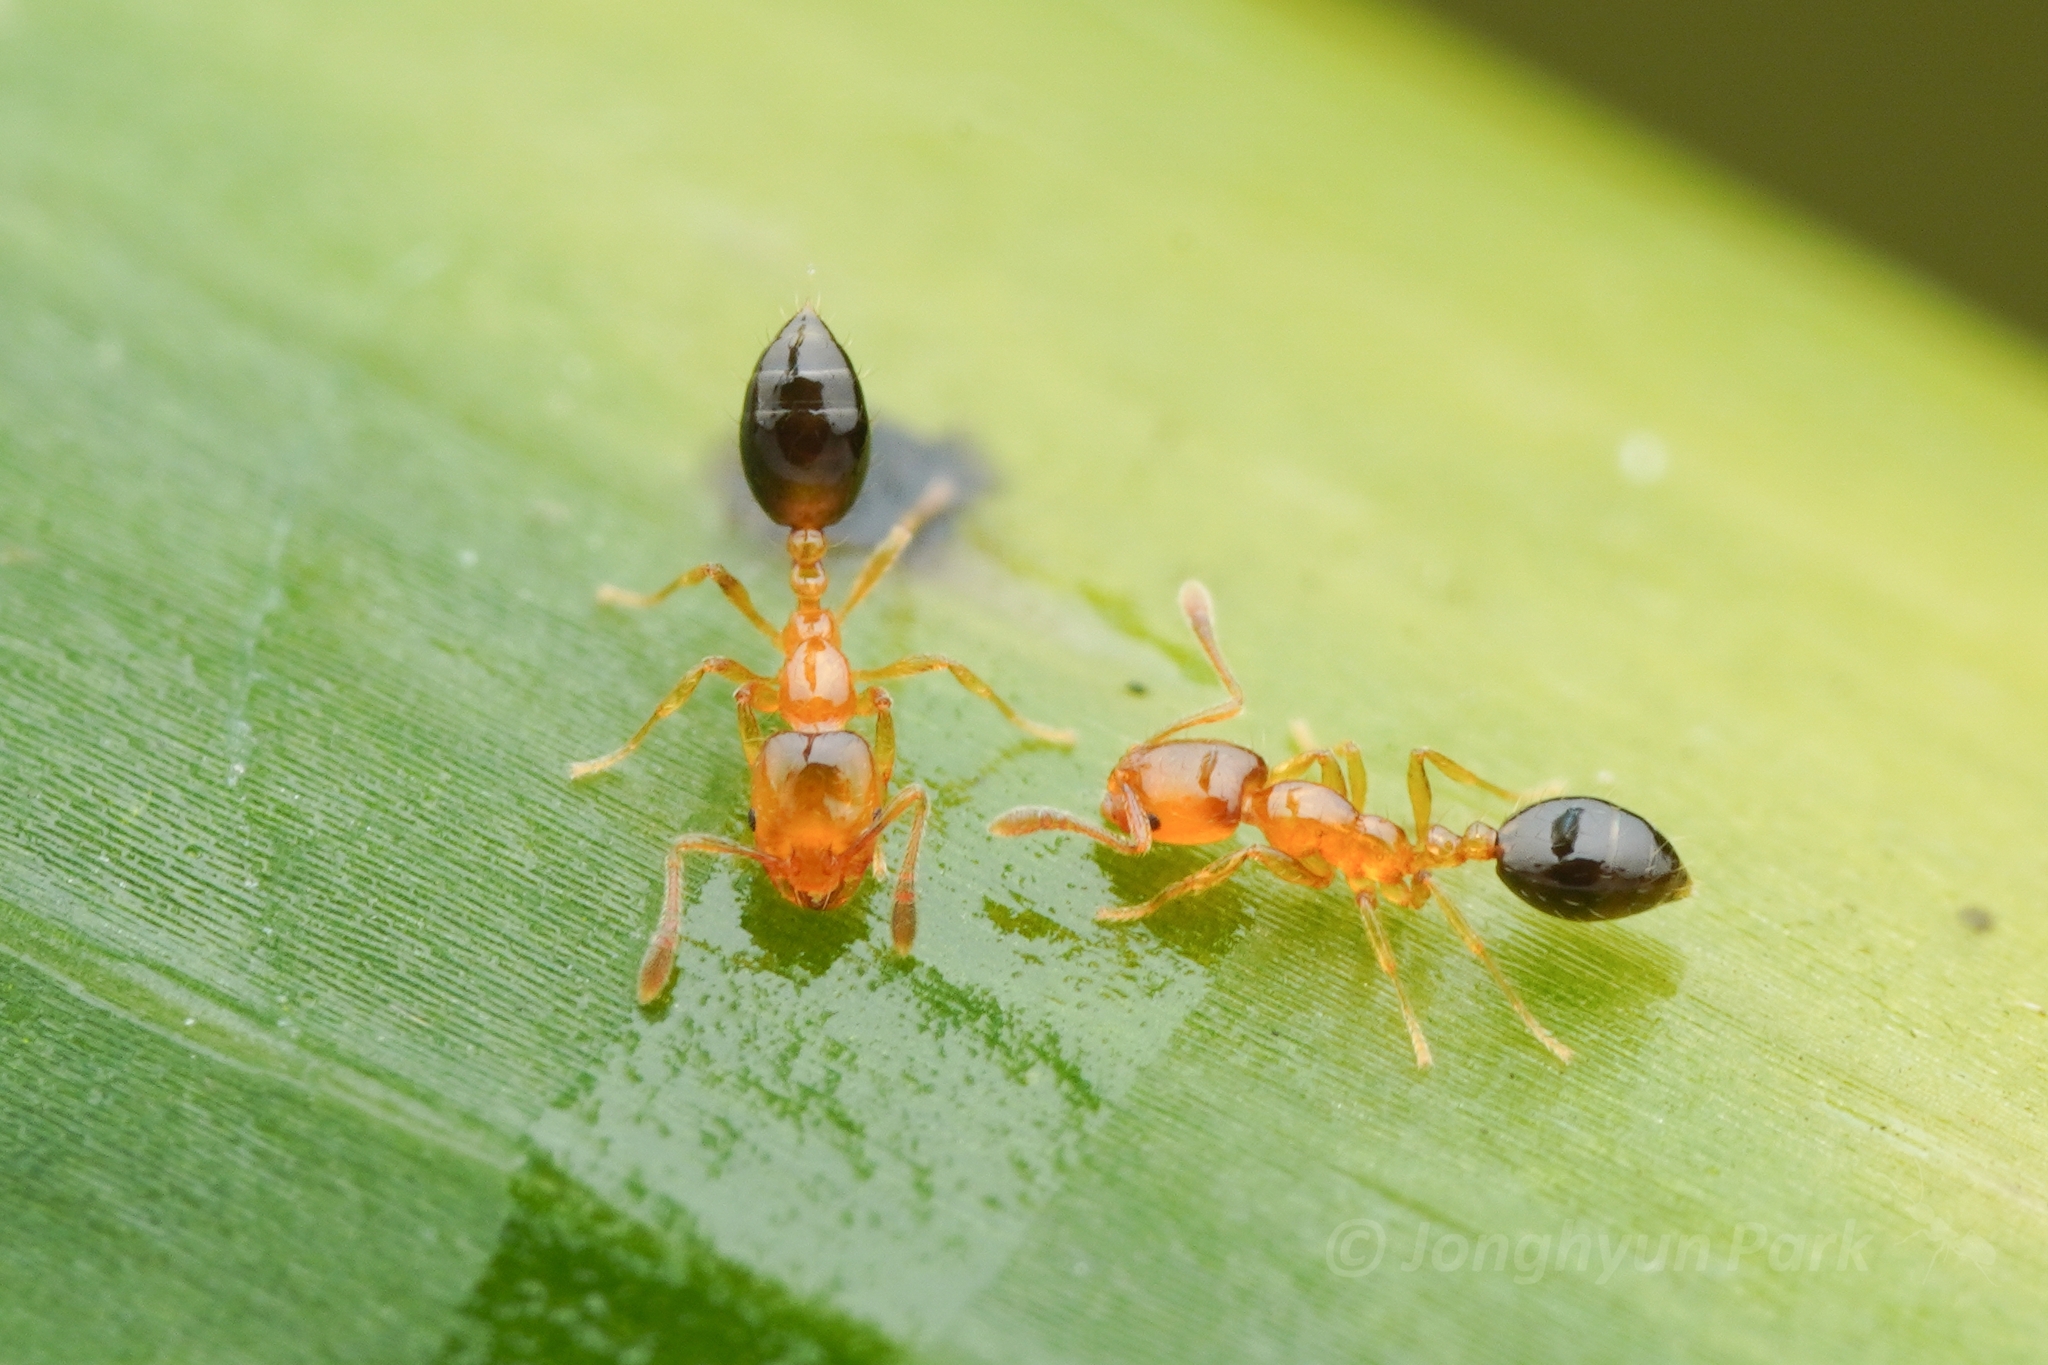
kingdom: Animalia
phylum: Arthropoda
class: Insecta
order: Hymenoptera
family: Formicidae
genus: Monomorium
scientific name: Monomorium intrudens
